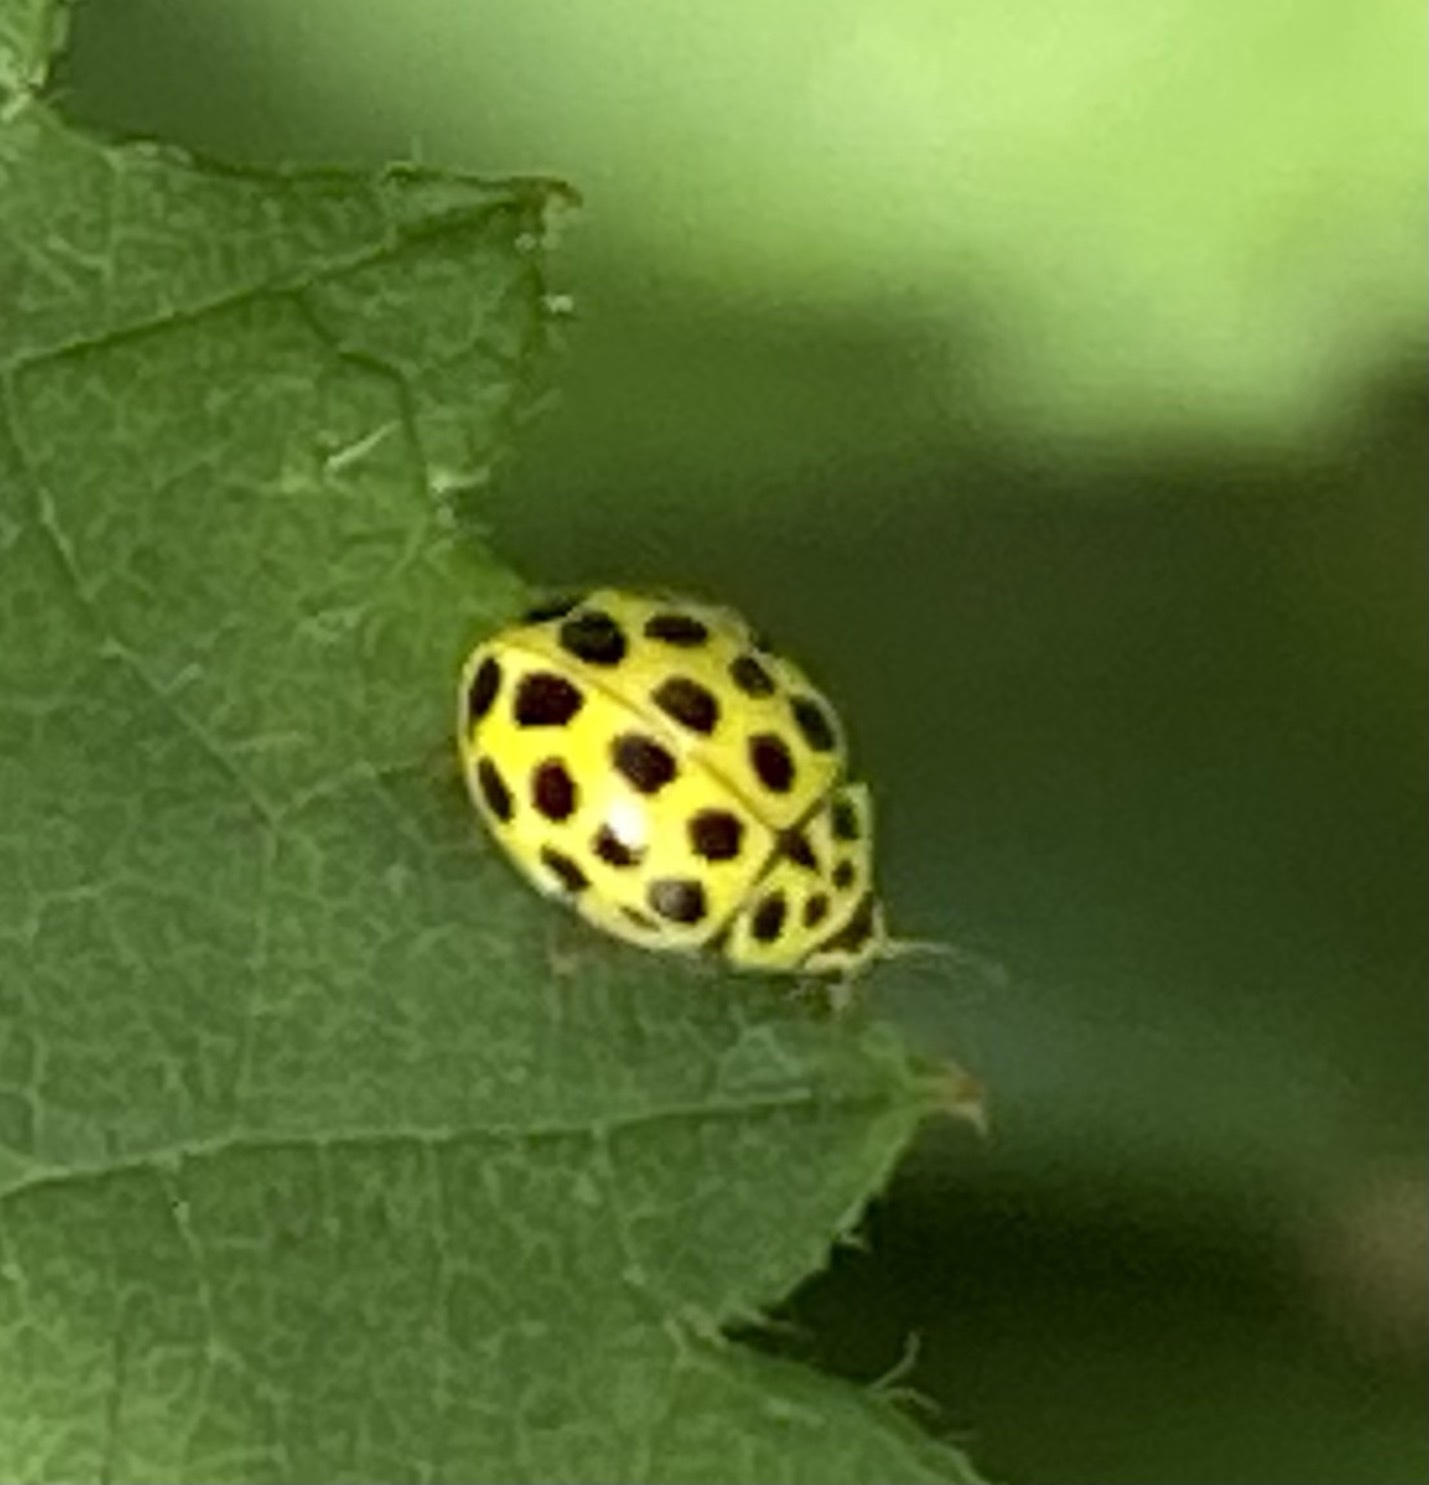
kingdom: Animalia
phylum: Arthropoda
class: Insecta
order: Coleoptera
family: Coccinellidae
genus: Psyllobora
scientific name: Psyllobora vigintiduopunctata
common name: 22-spot ladybird
